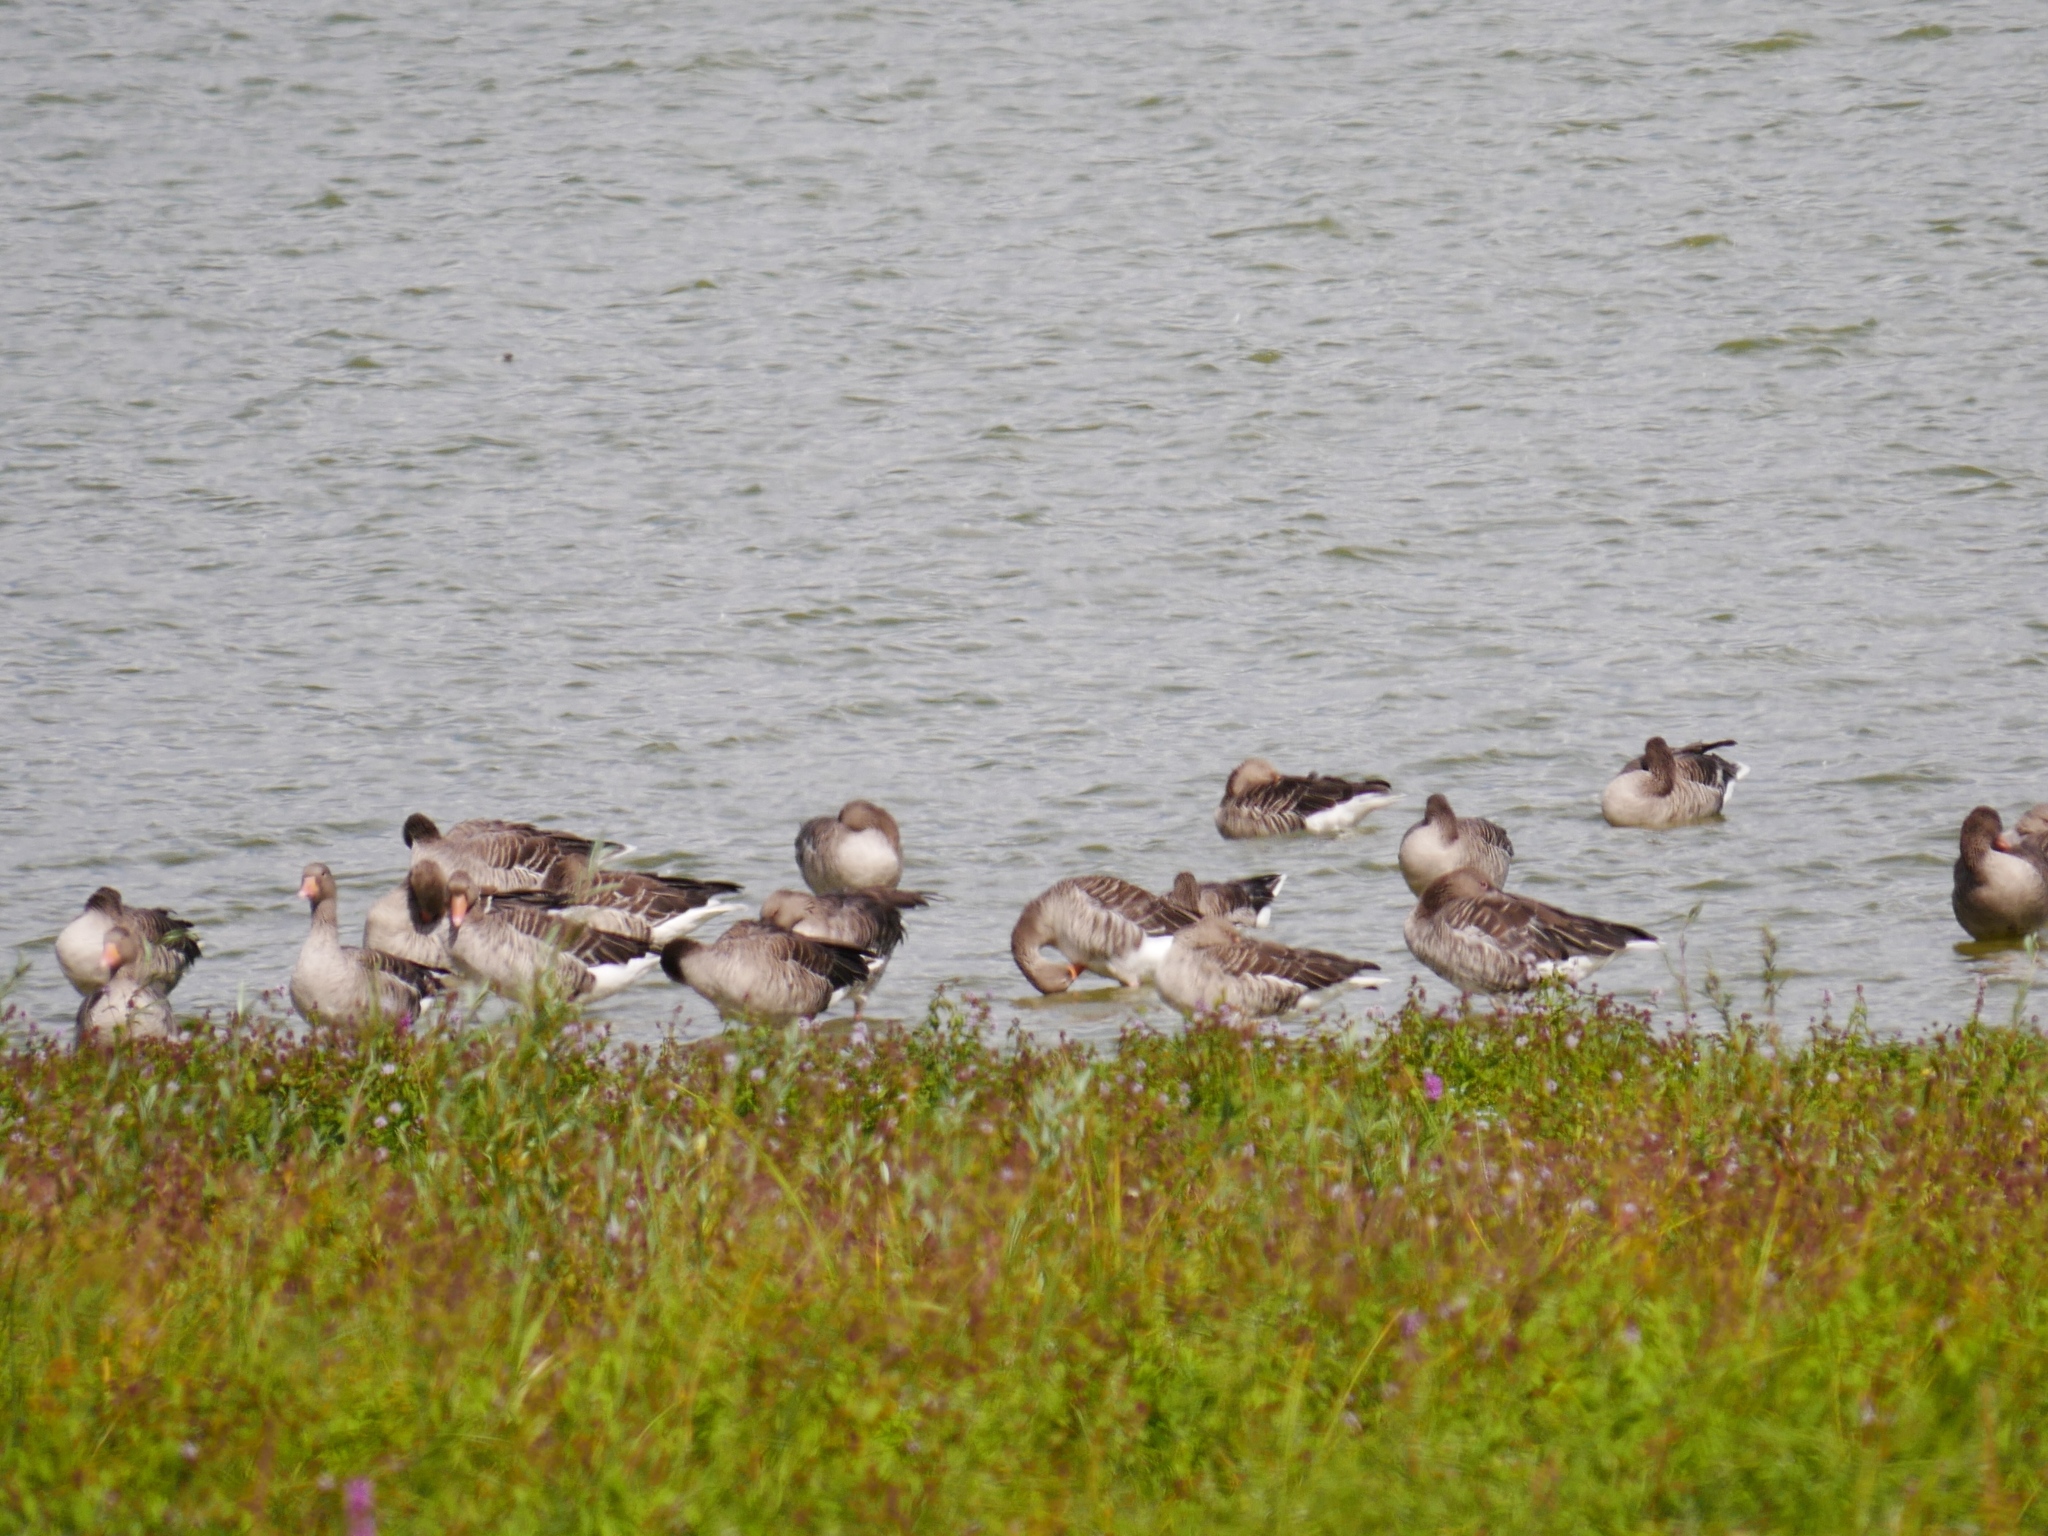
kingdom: Animalia
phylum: Chordata
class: Aves
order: Anseriformes
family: Anatidae
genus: Anser
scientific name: Anser anser
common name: Greylag goose
